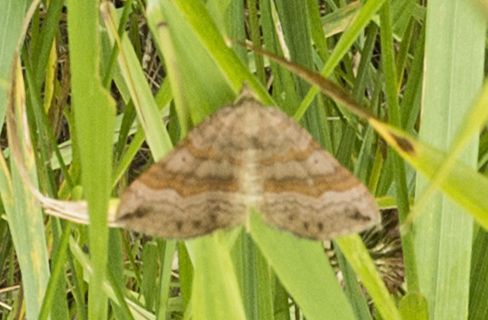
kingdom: Animalia
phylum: Arthropoda
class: Insecta
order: Lepidoptera
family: Geometridae
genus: Scotopteryx
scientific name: Scotopteryx chenopodiata
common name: Shaded broad-bar
